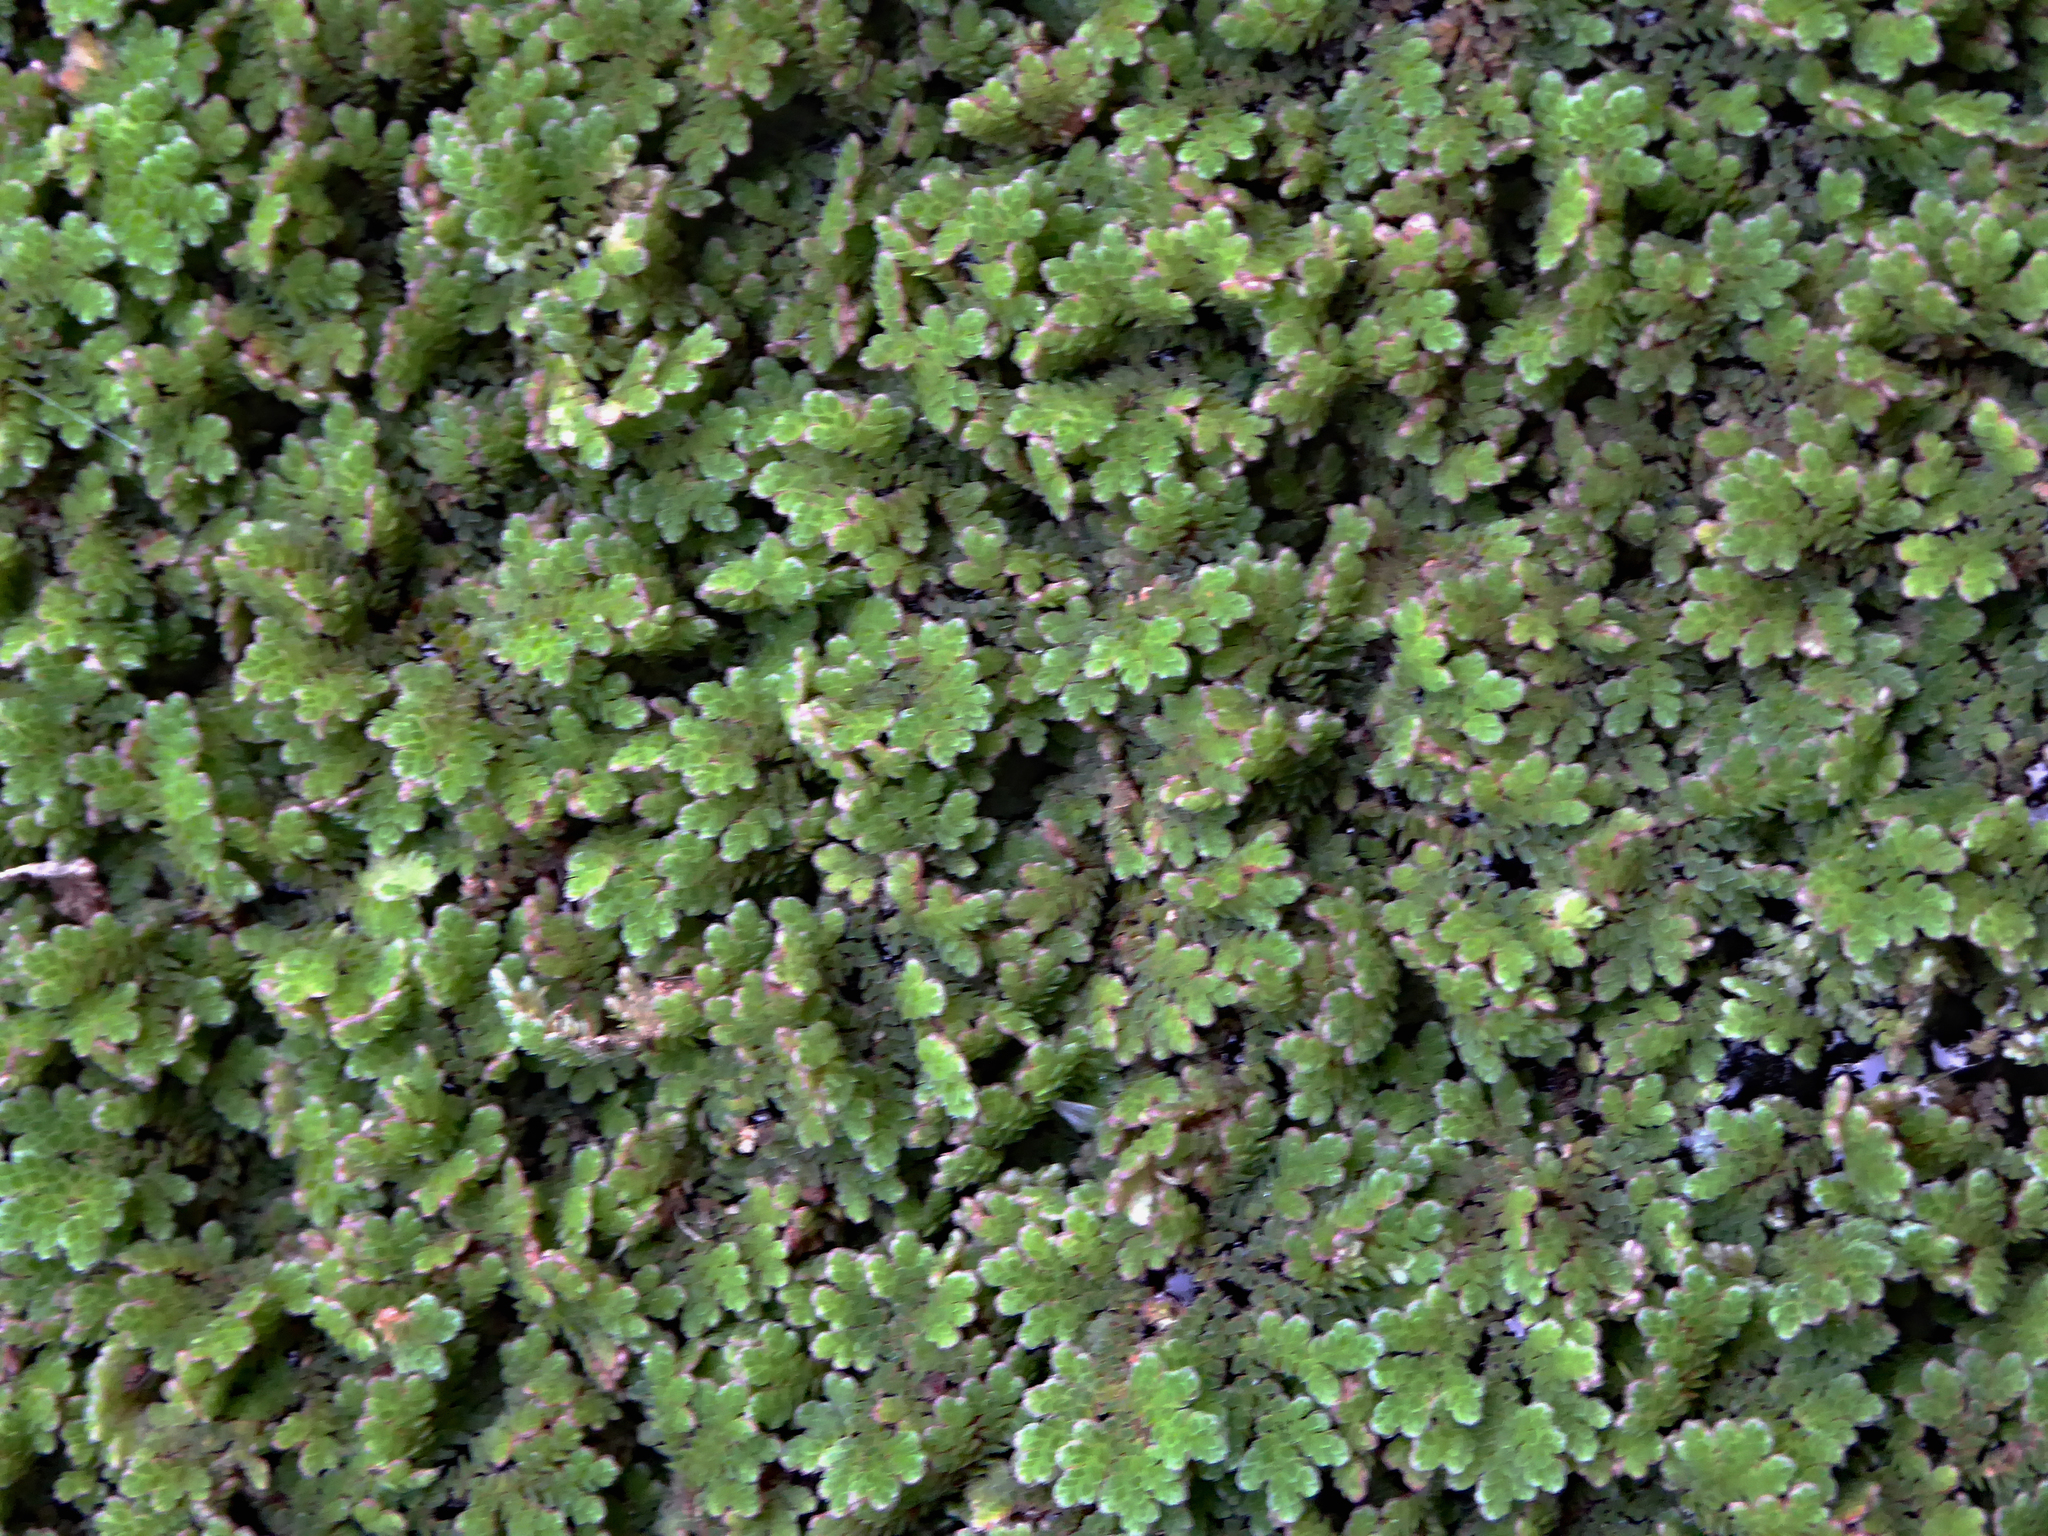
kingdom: Plantae
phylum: Tracheophyta
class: Polypodiopsida
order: Salviniales
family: Salviniaceae
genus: Azolla
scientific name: Azolla rubra
